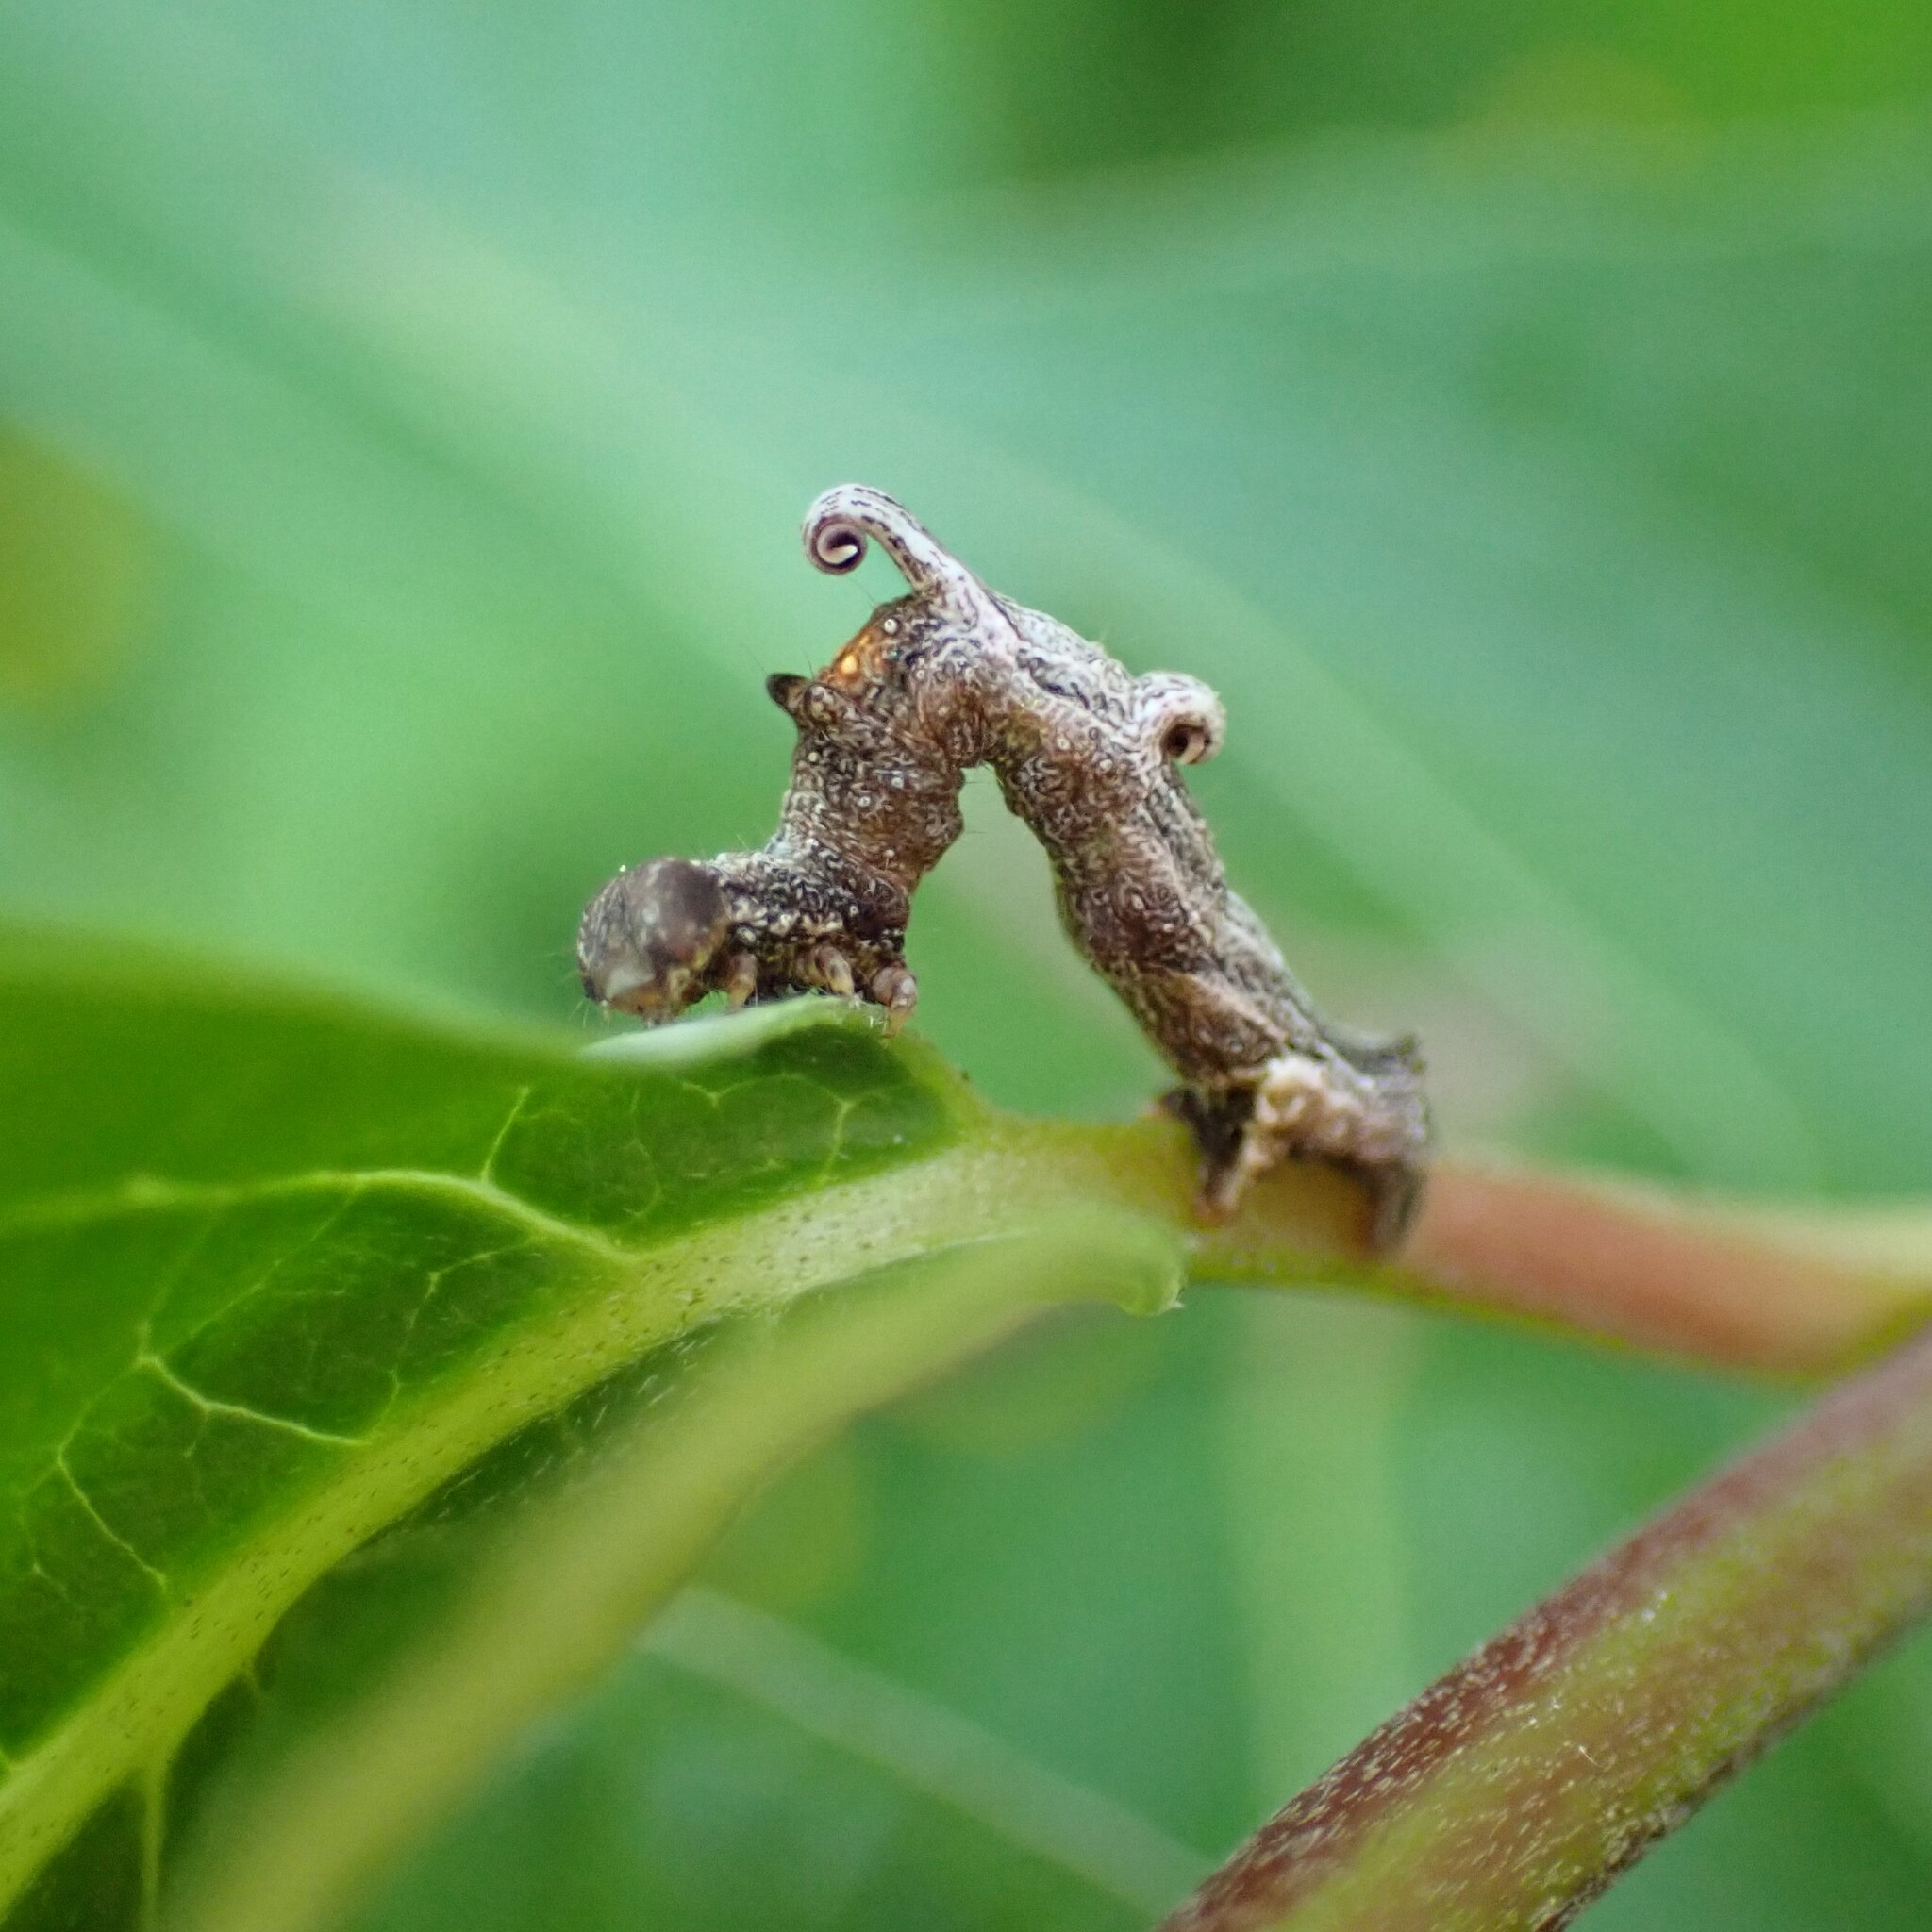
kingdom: Animalia
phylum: Arthropoda
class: Insecta
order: Lepidoptera
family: Geometridae
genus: Nematocampa
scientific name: Nematocampa resistaria
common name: Horned spanworm moth
